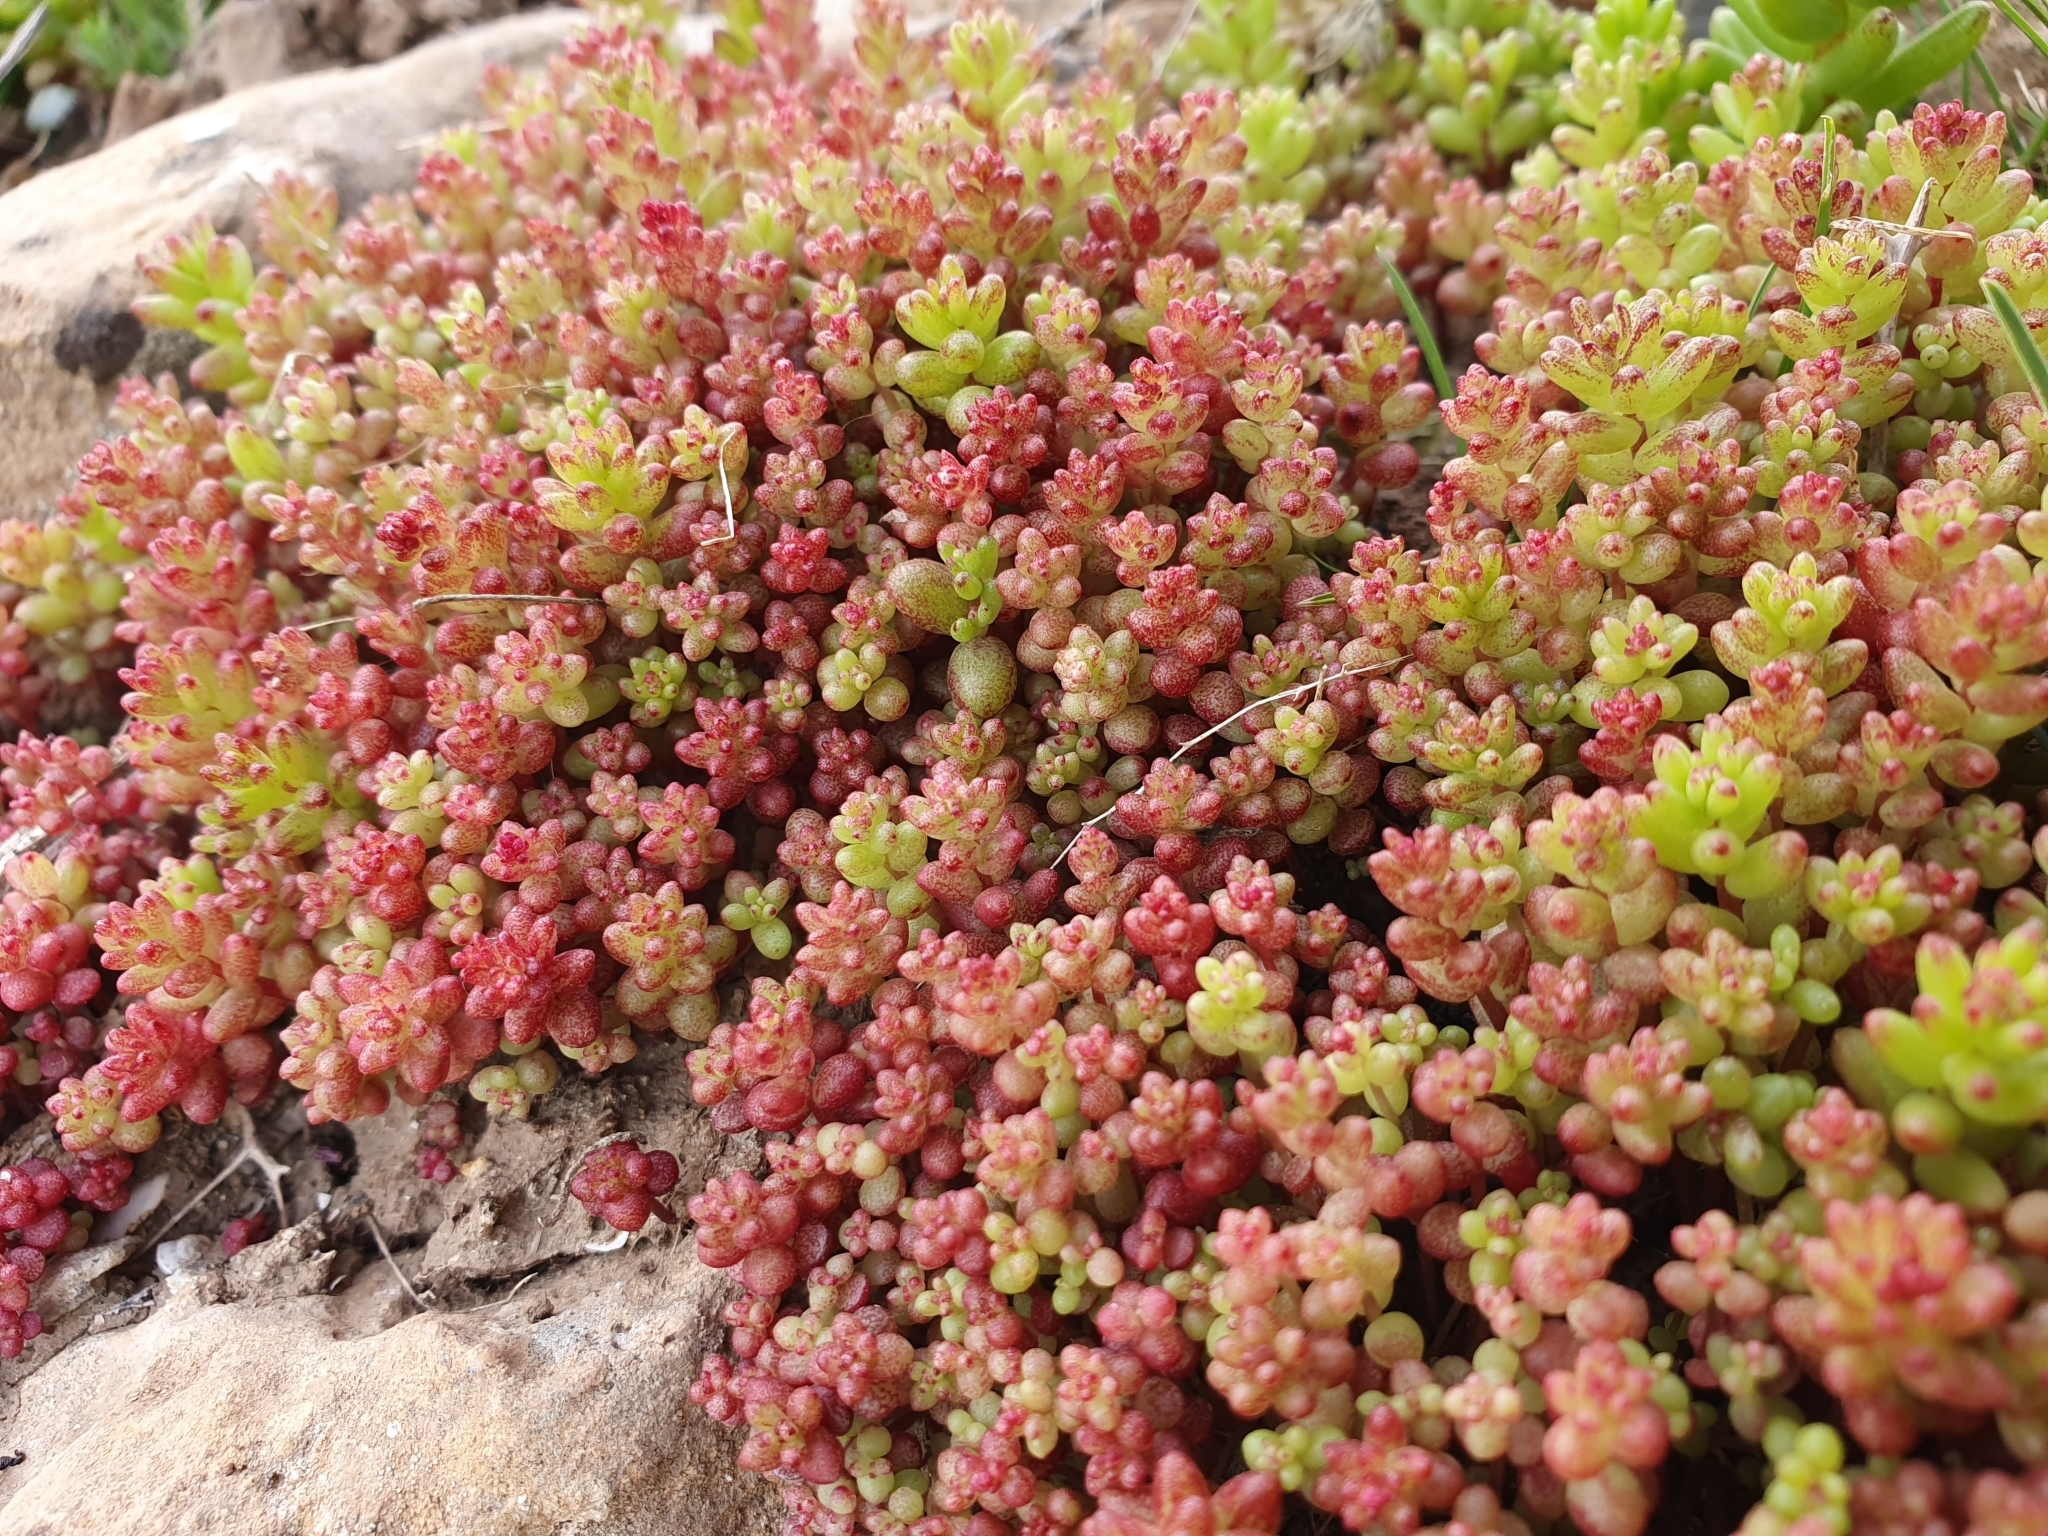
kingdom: Plantae
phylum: Tracheophyta
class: Magnoliopsida
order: Saxifragales
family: Crassulaceae
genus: Sedum
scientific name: Sedum caeruleum
